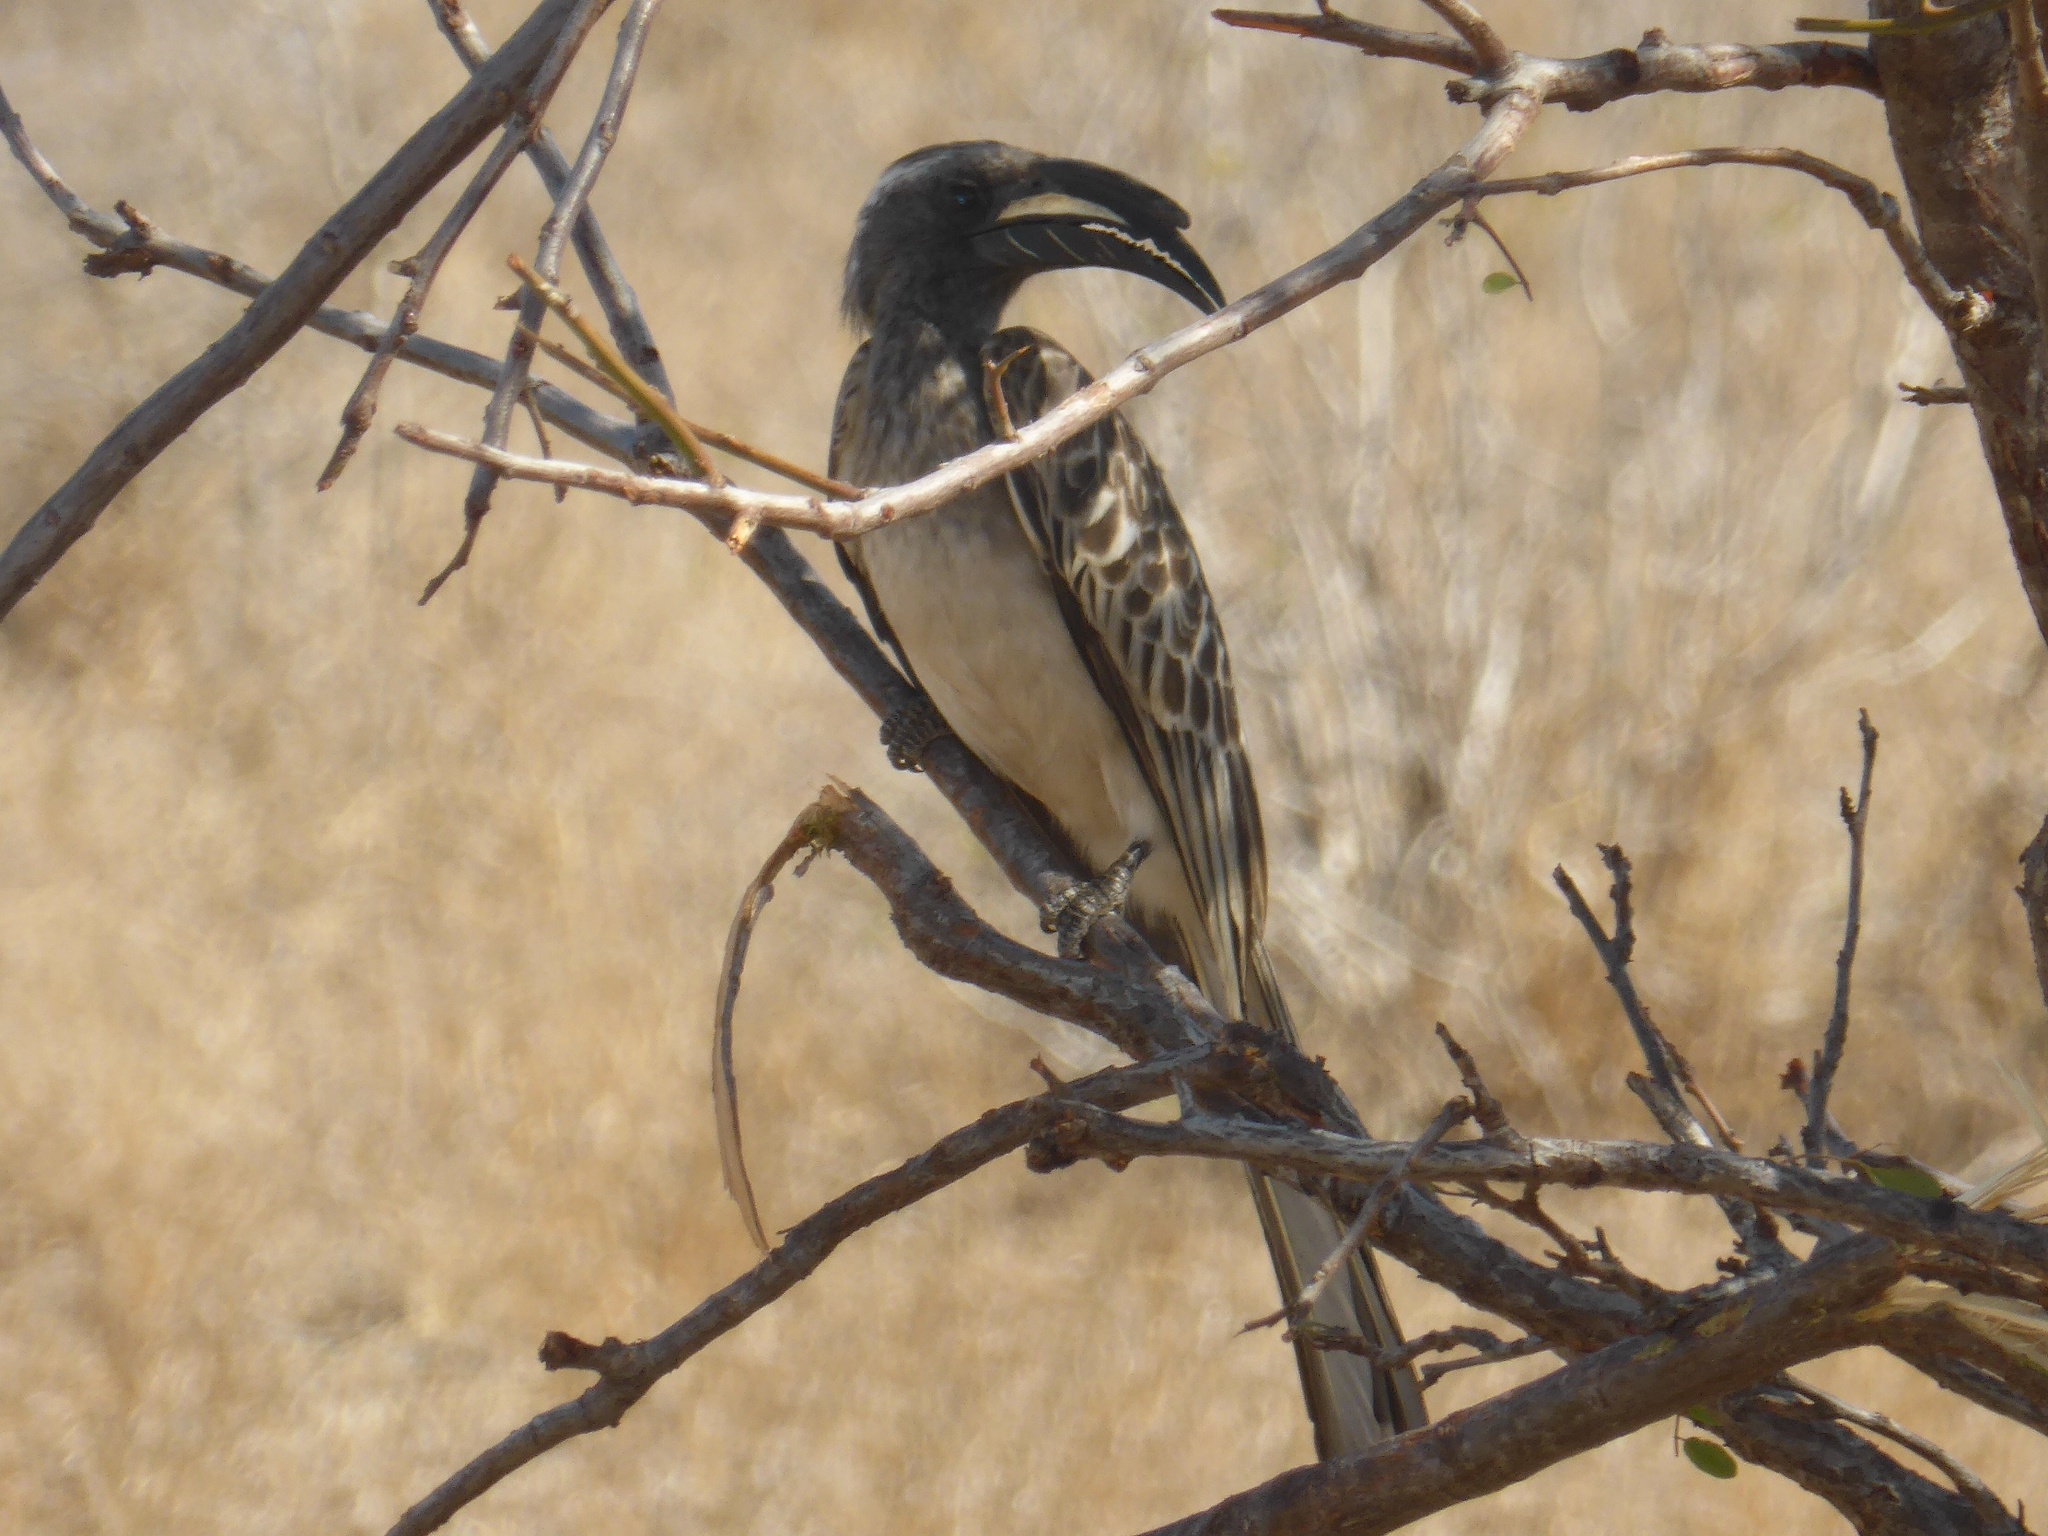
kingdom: Animalia
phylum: Chordata
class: Aves
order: Bucerotiformes
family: Bucerotidae
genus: Lophoceros
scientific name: Lophoceros nasutus
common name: African grey hornbill
